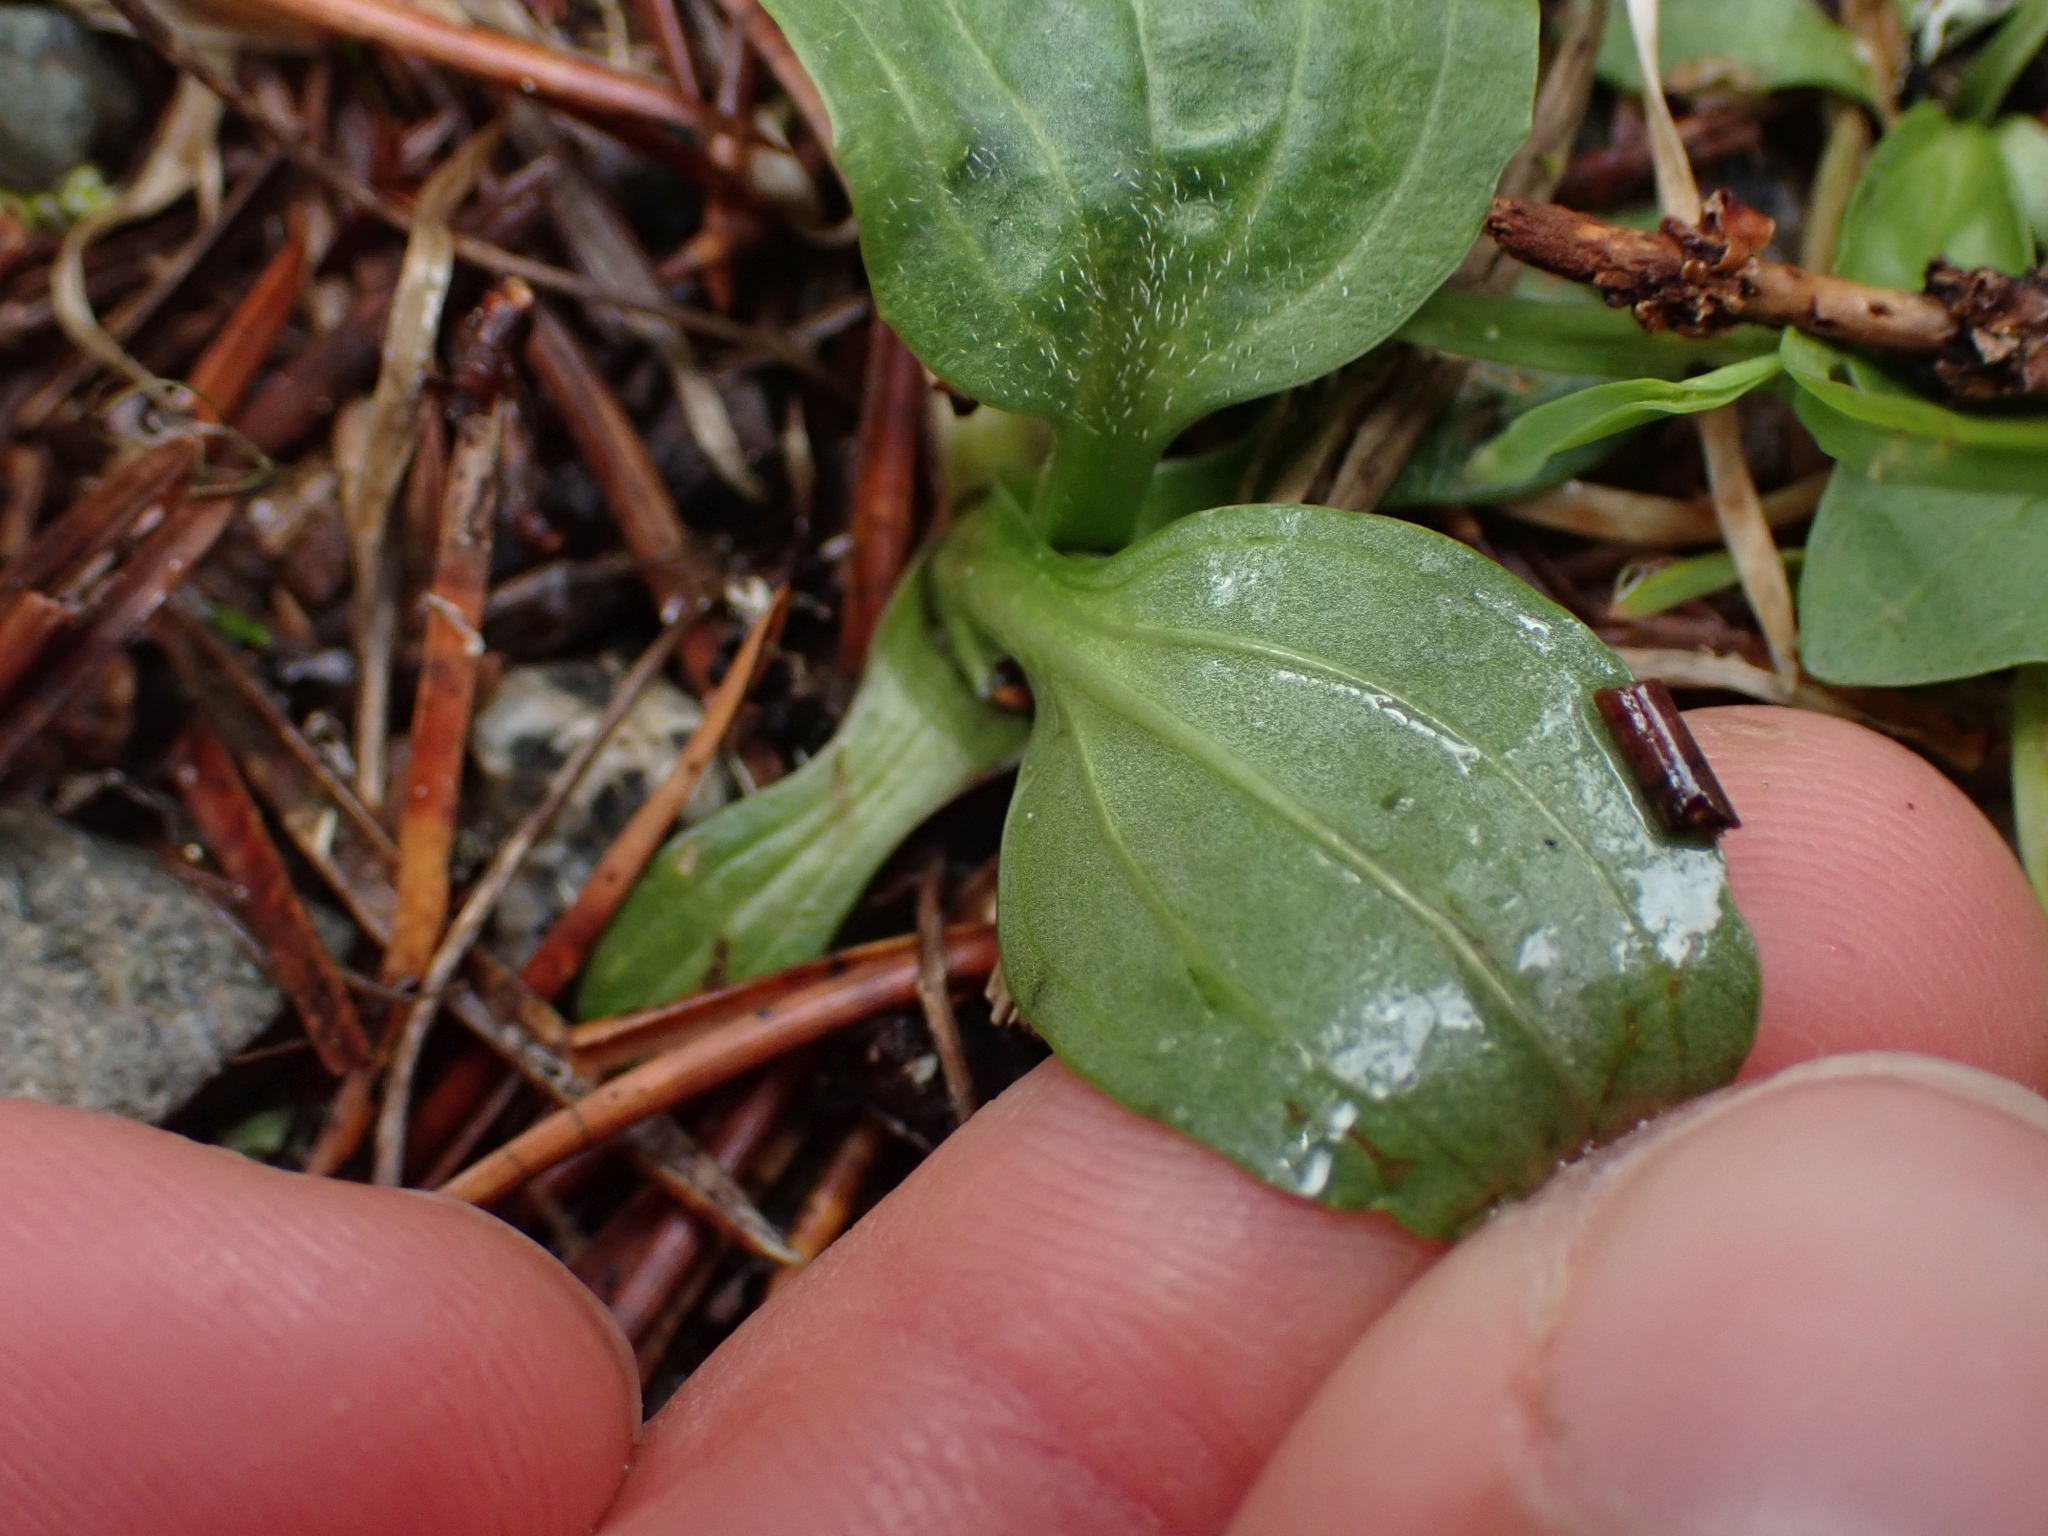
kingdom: Plantae
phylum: Tracheophyta
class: Magnoliopsida
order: Lamiales
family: Plantaginaceae
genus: Plantago
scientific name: Plantago major
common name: Common plantain
